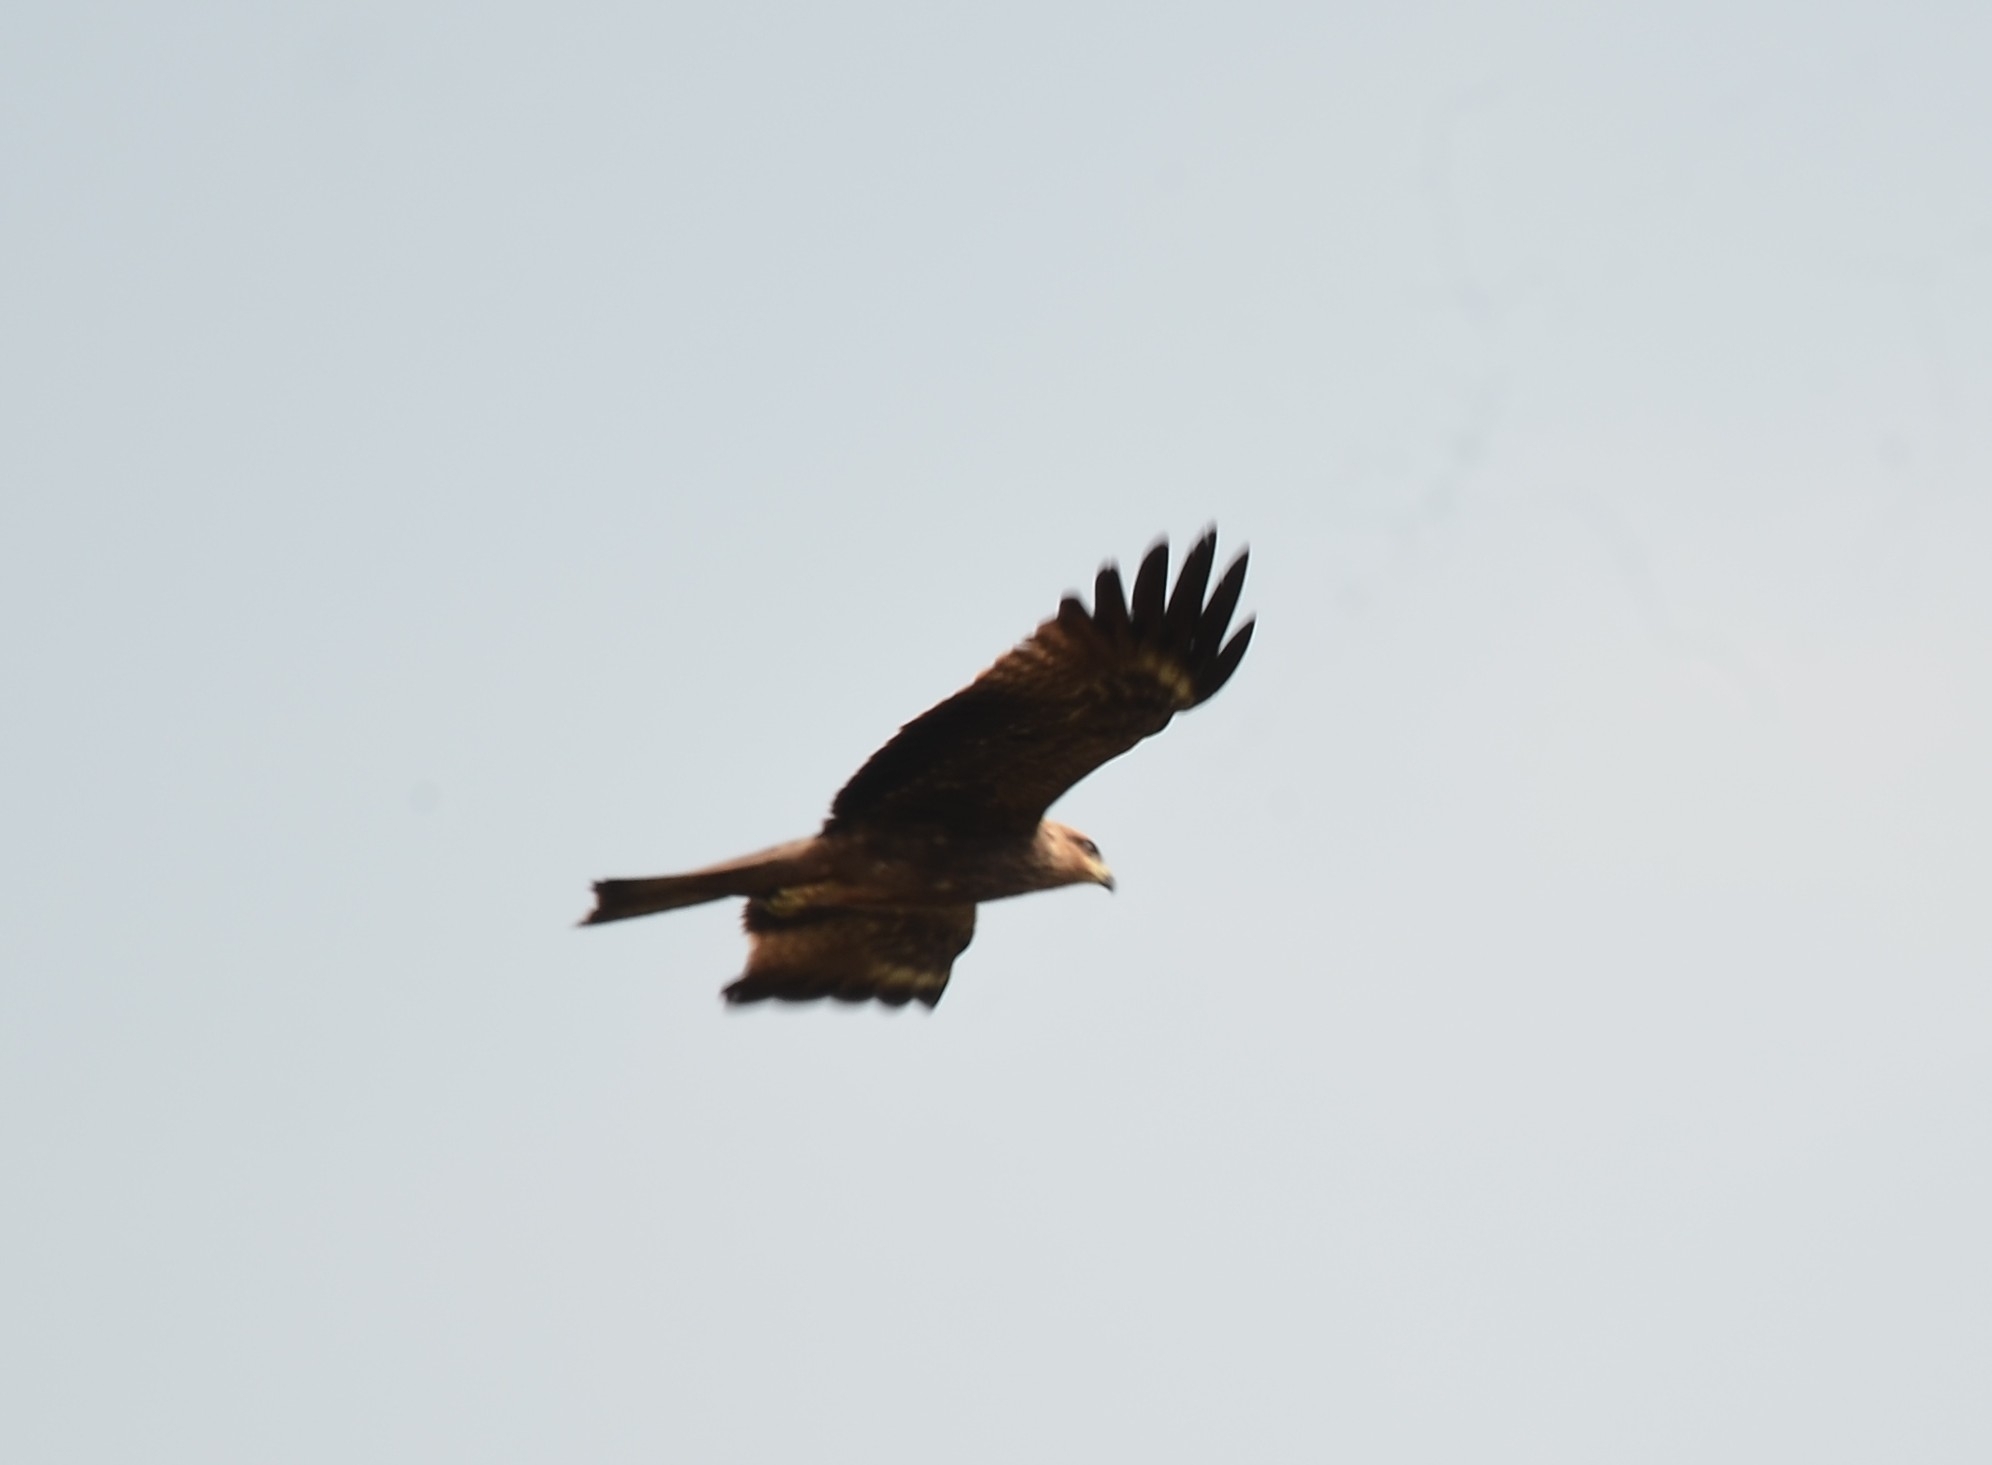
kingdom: Animalia
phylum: Chordata
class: Aves
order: Accipitriformes
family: Accipitridae
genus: Milvus
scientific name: Milvus migrans
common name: Black kite
